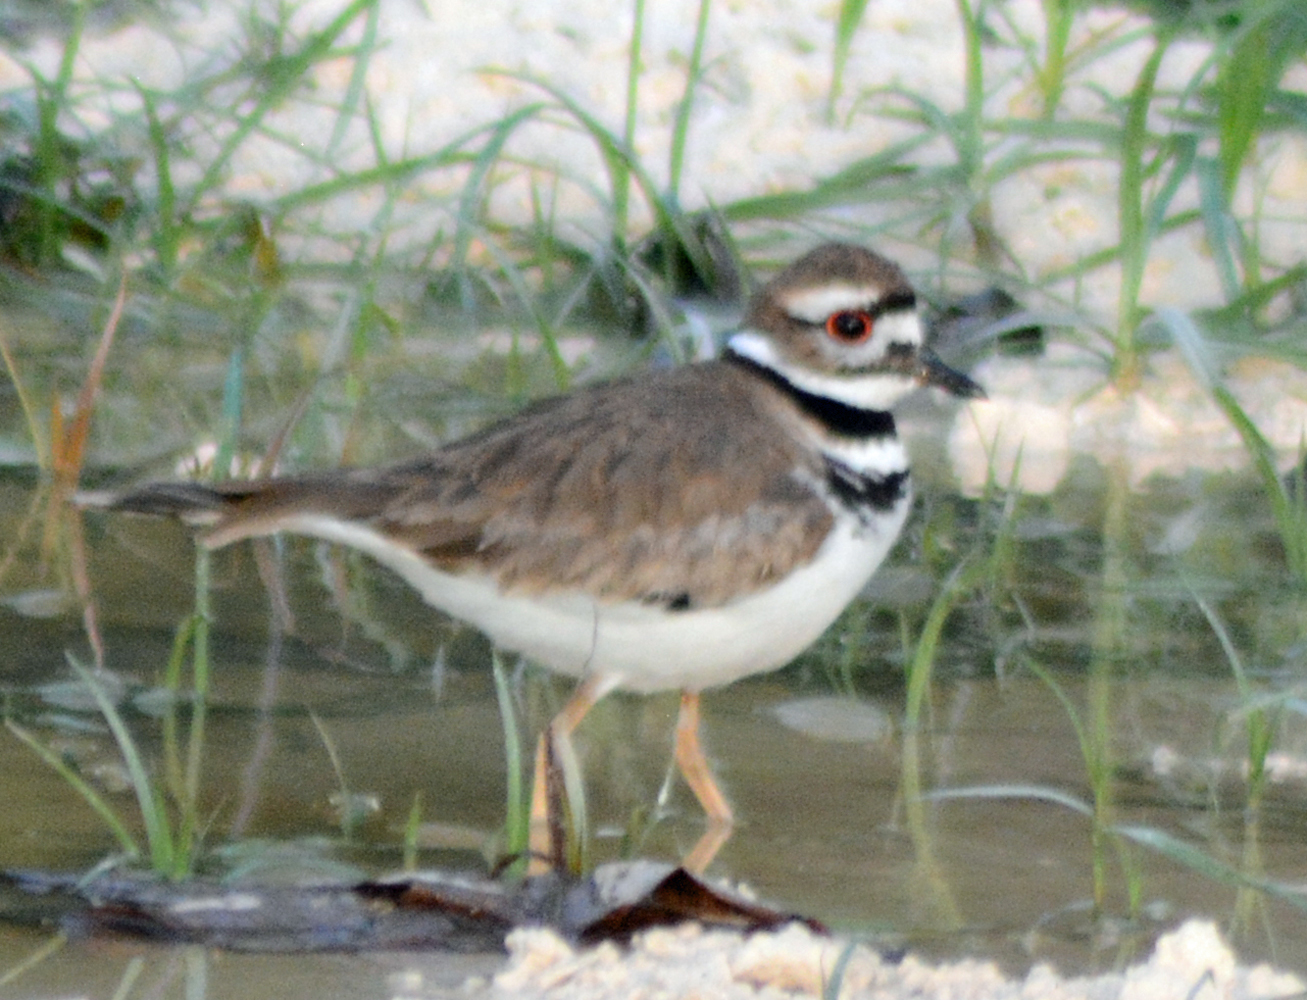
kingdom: Animalia
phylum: Chordata
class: Aves
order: Charadriiformes
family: Charadriidae
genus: Charadrius
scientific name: Charadrius vociferus
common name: Killdeer
